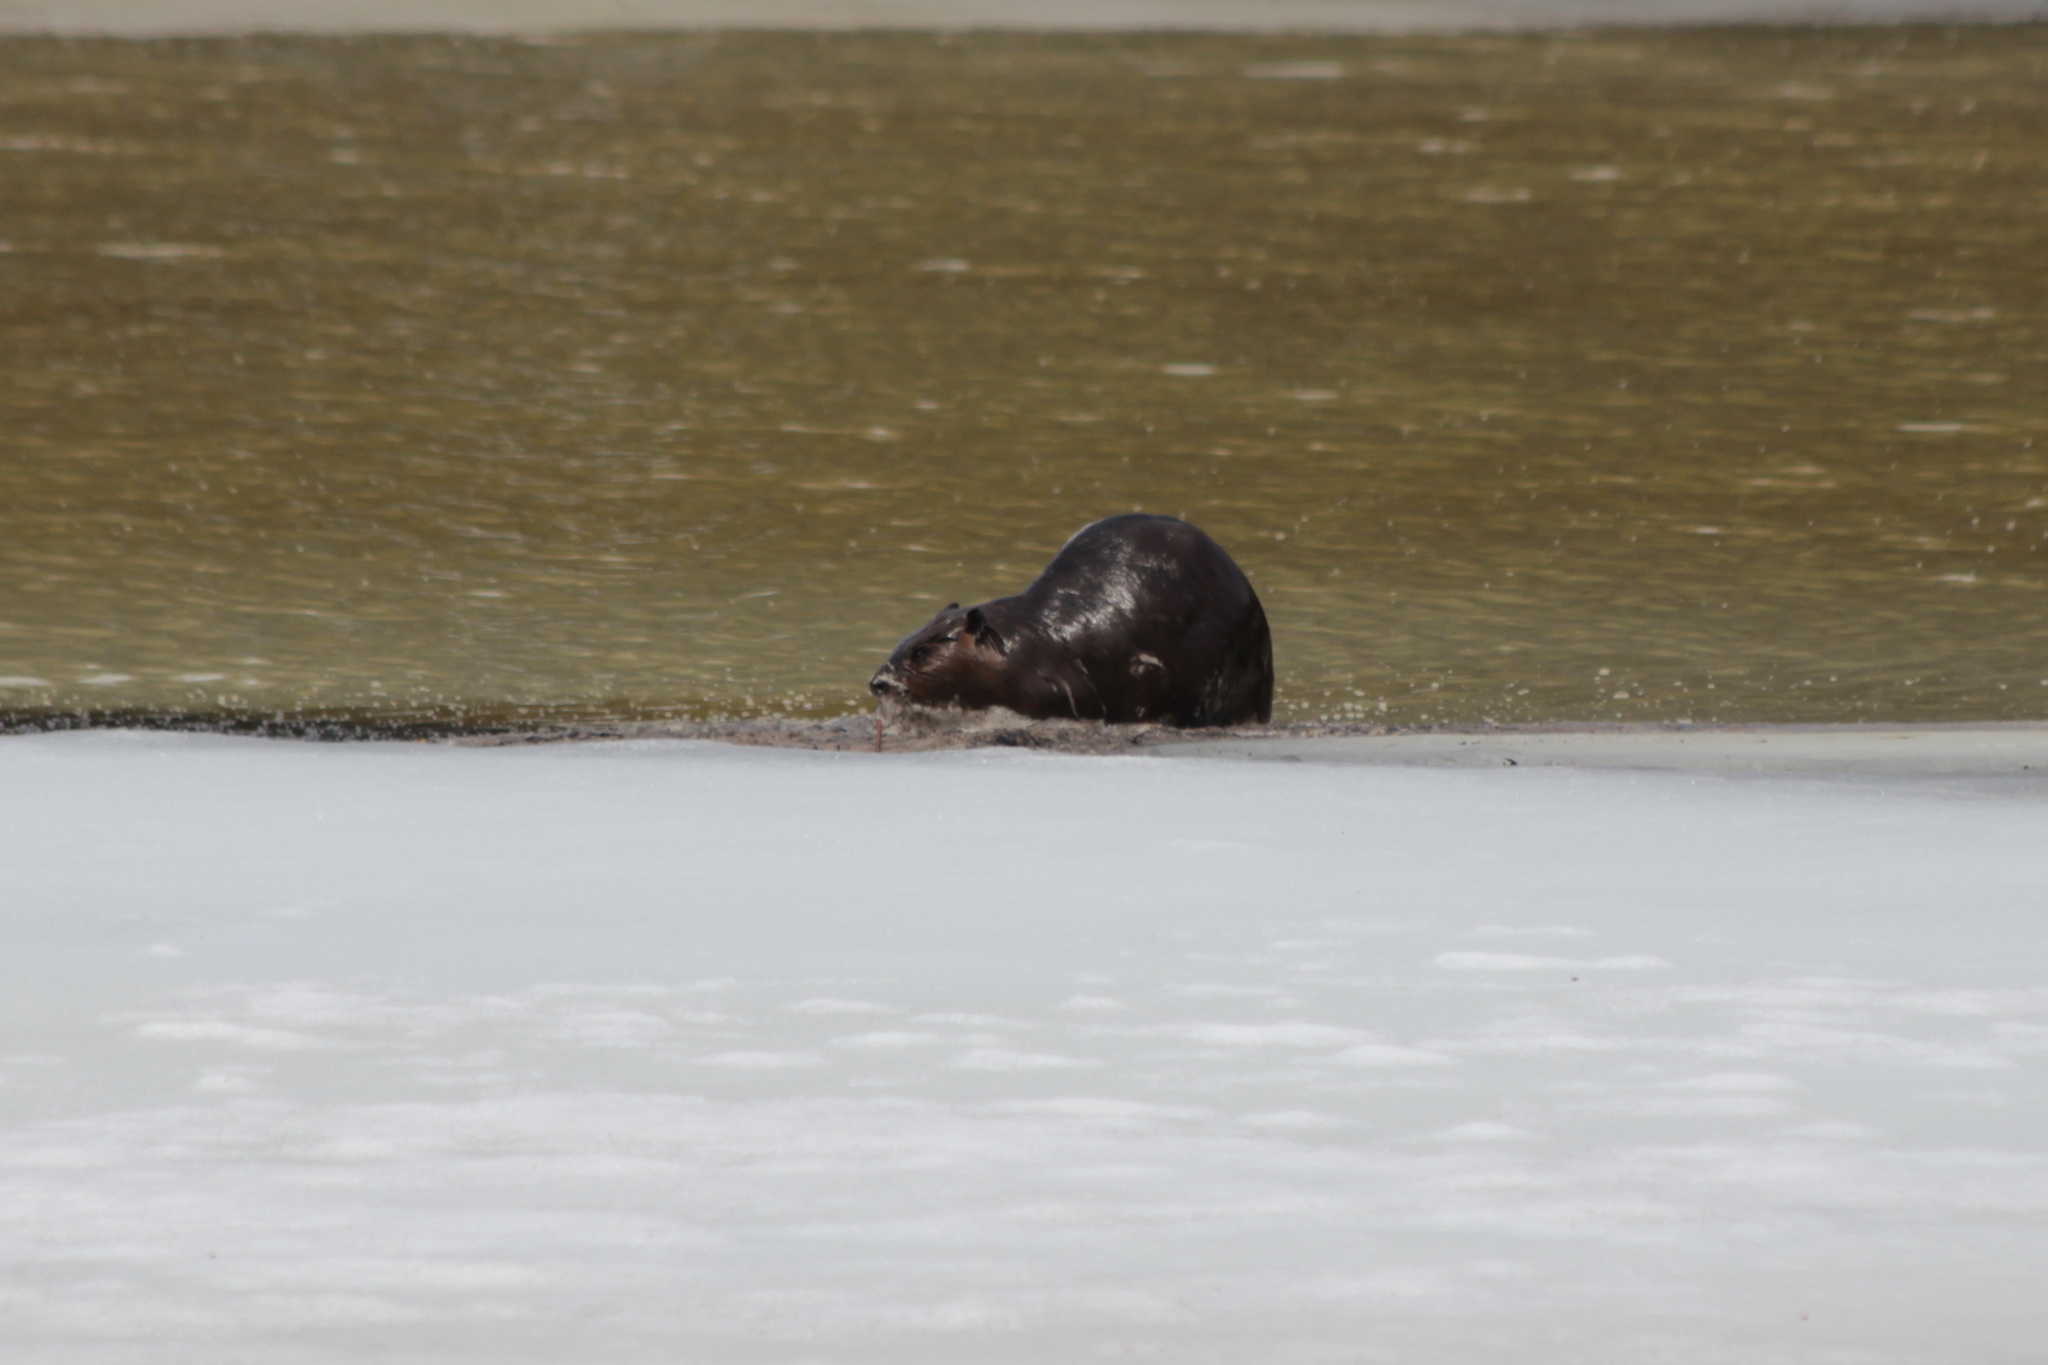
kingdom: Animalia
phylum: Chordata
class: Mammalia
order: Rodentia
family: Castoridae
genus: Castor
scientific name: Castor canadensis
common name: American beaver
